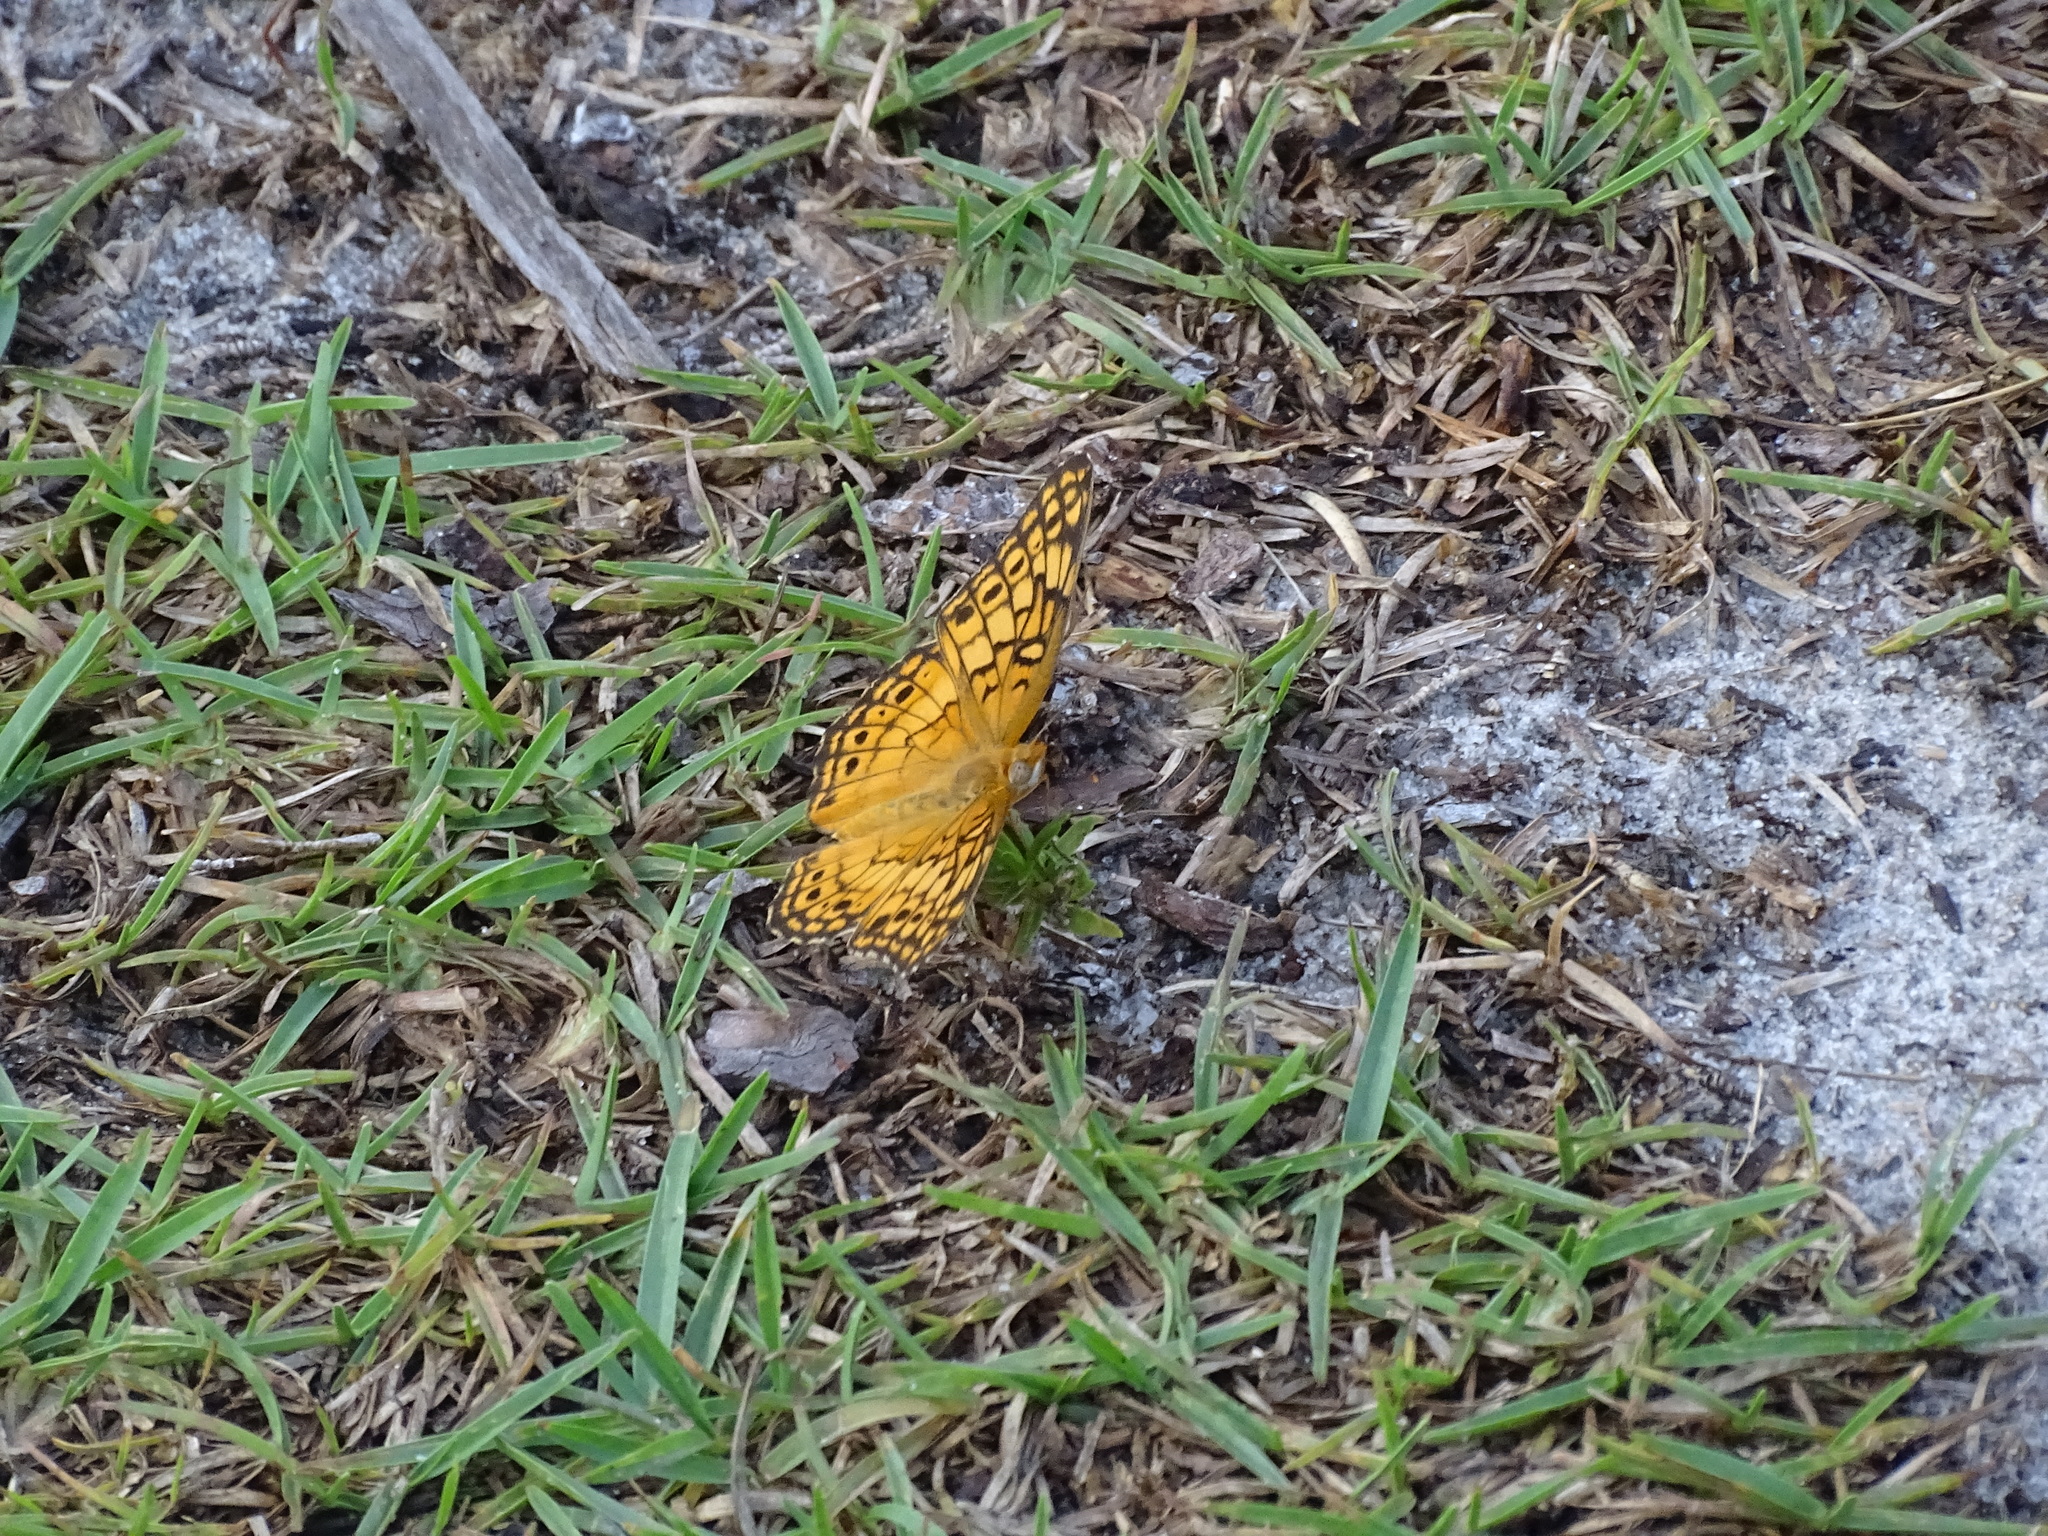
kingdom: Animalia
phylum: Arthropoda
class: Insecta
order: Lepidoptera
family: Nymphalidae
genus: Euptoieta
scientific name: Euptoieta claudia
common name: Variegated fritillary
